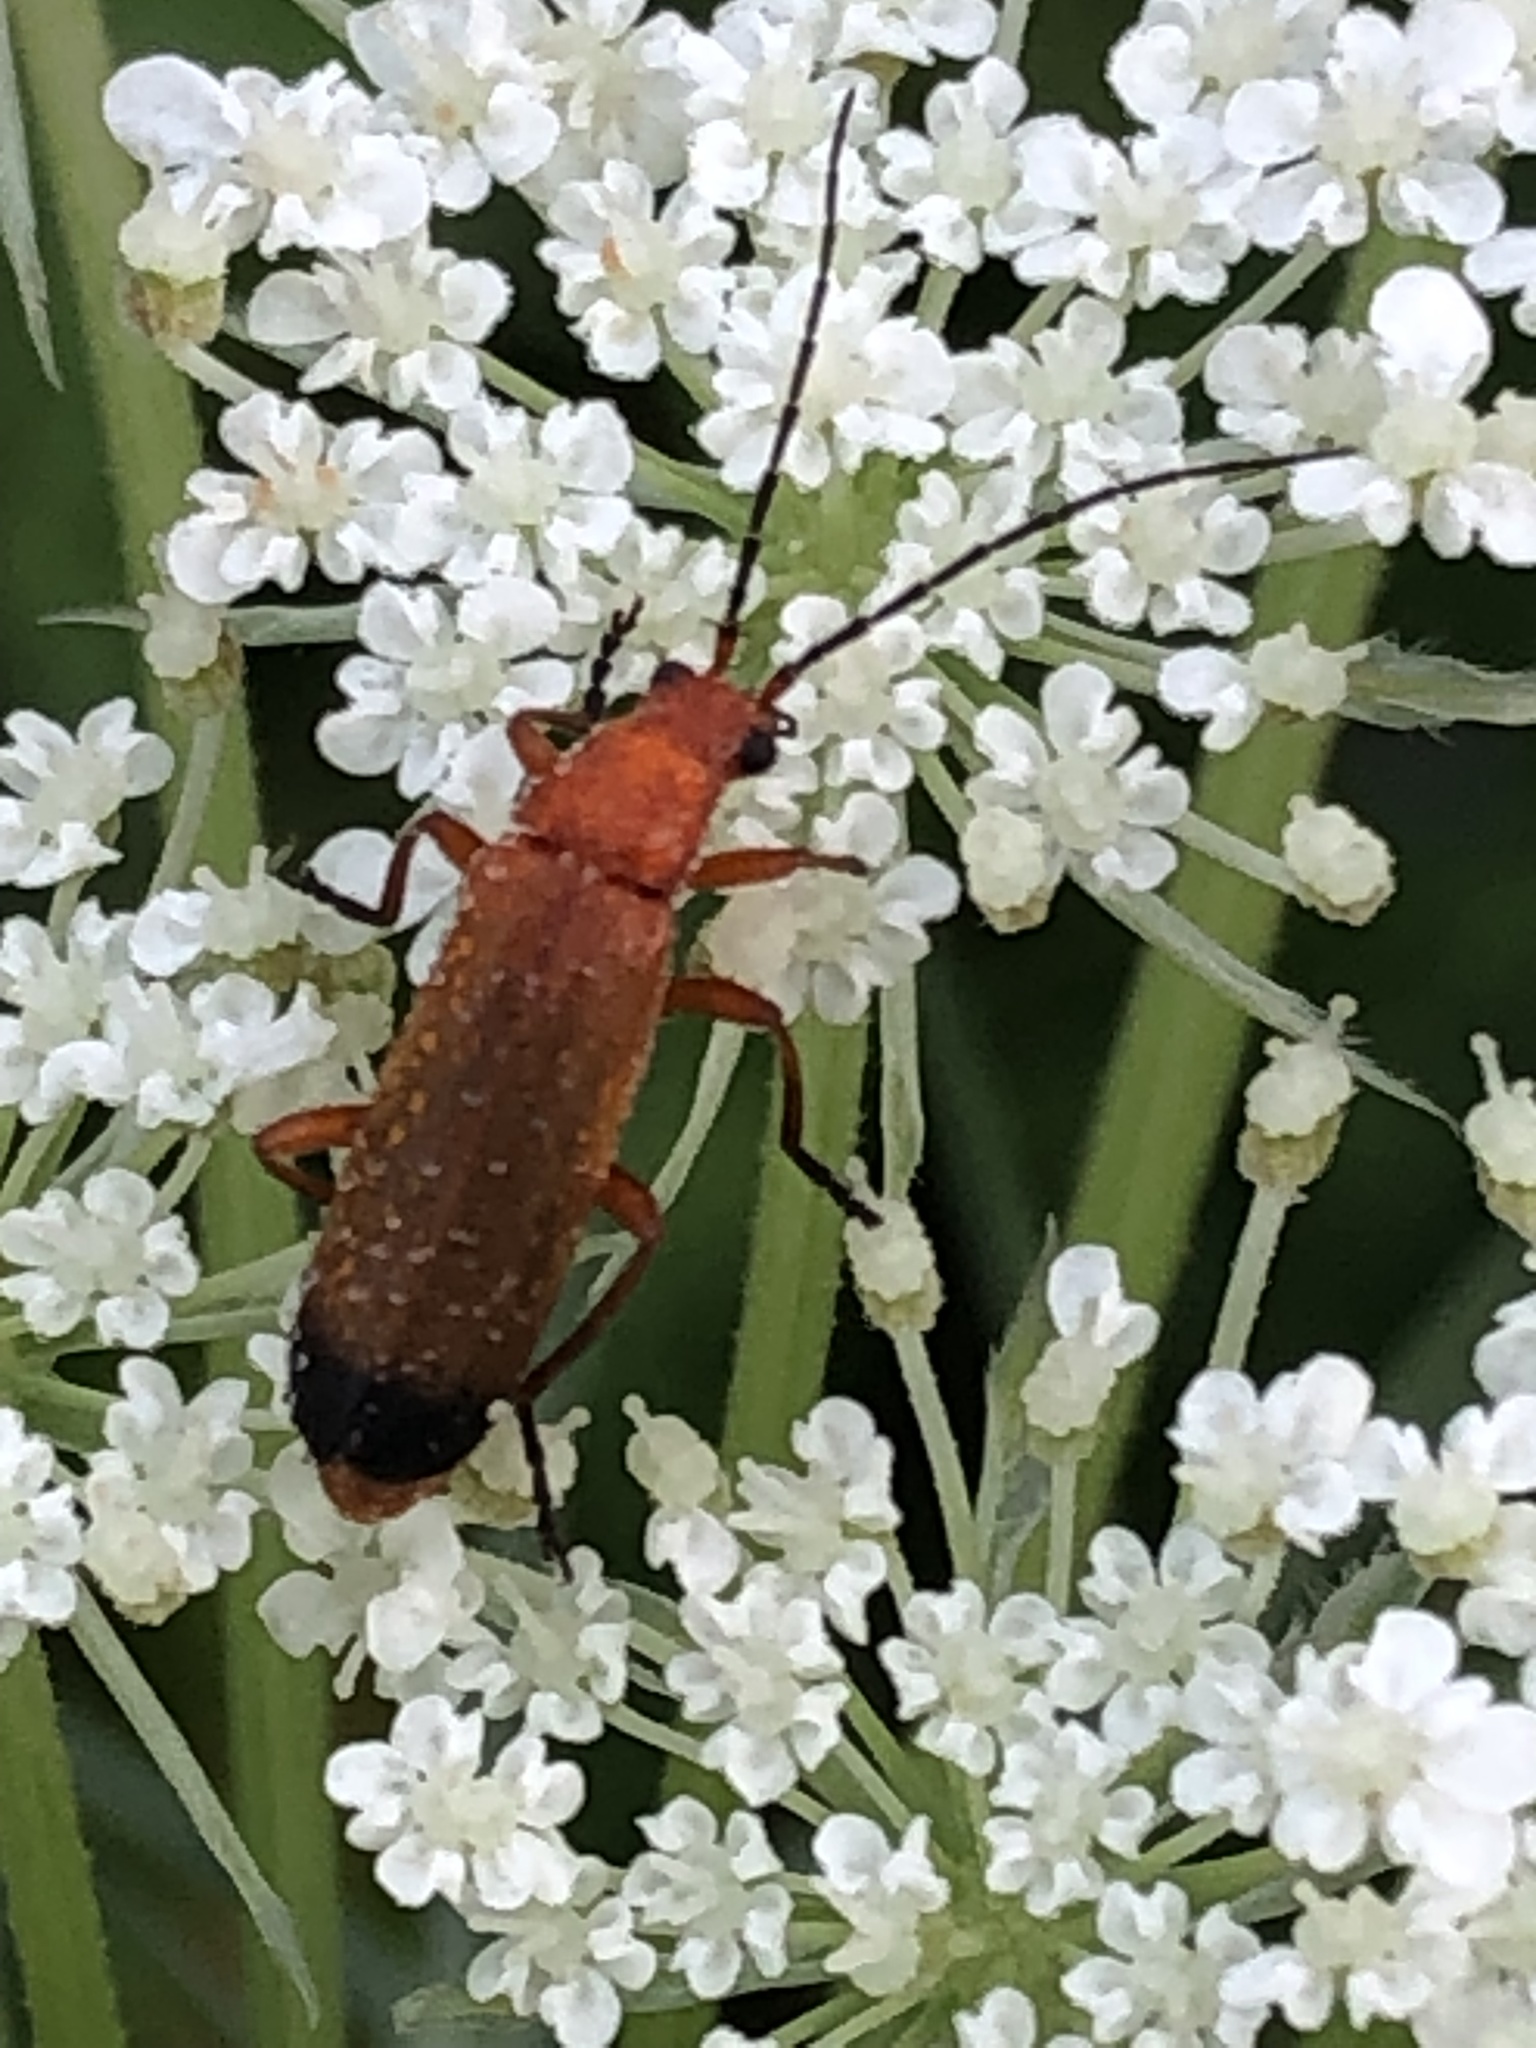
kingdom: Animalia
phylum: Arthropoda
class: Insecta
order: Coleoptera
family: Cantharidae
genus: Rhagonycha
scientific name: Rhagonycha fulva
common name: Common red soldier beetle
